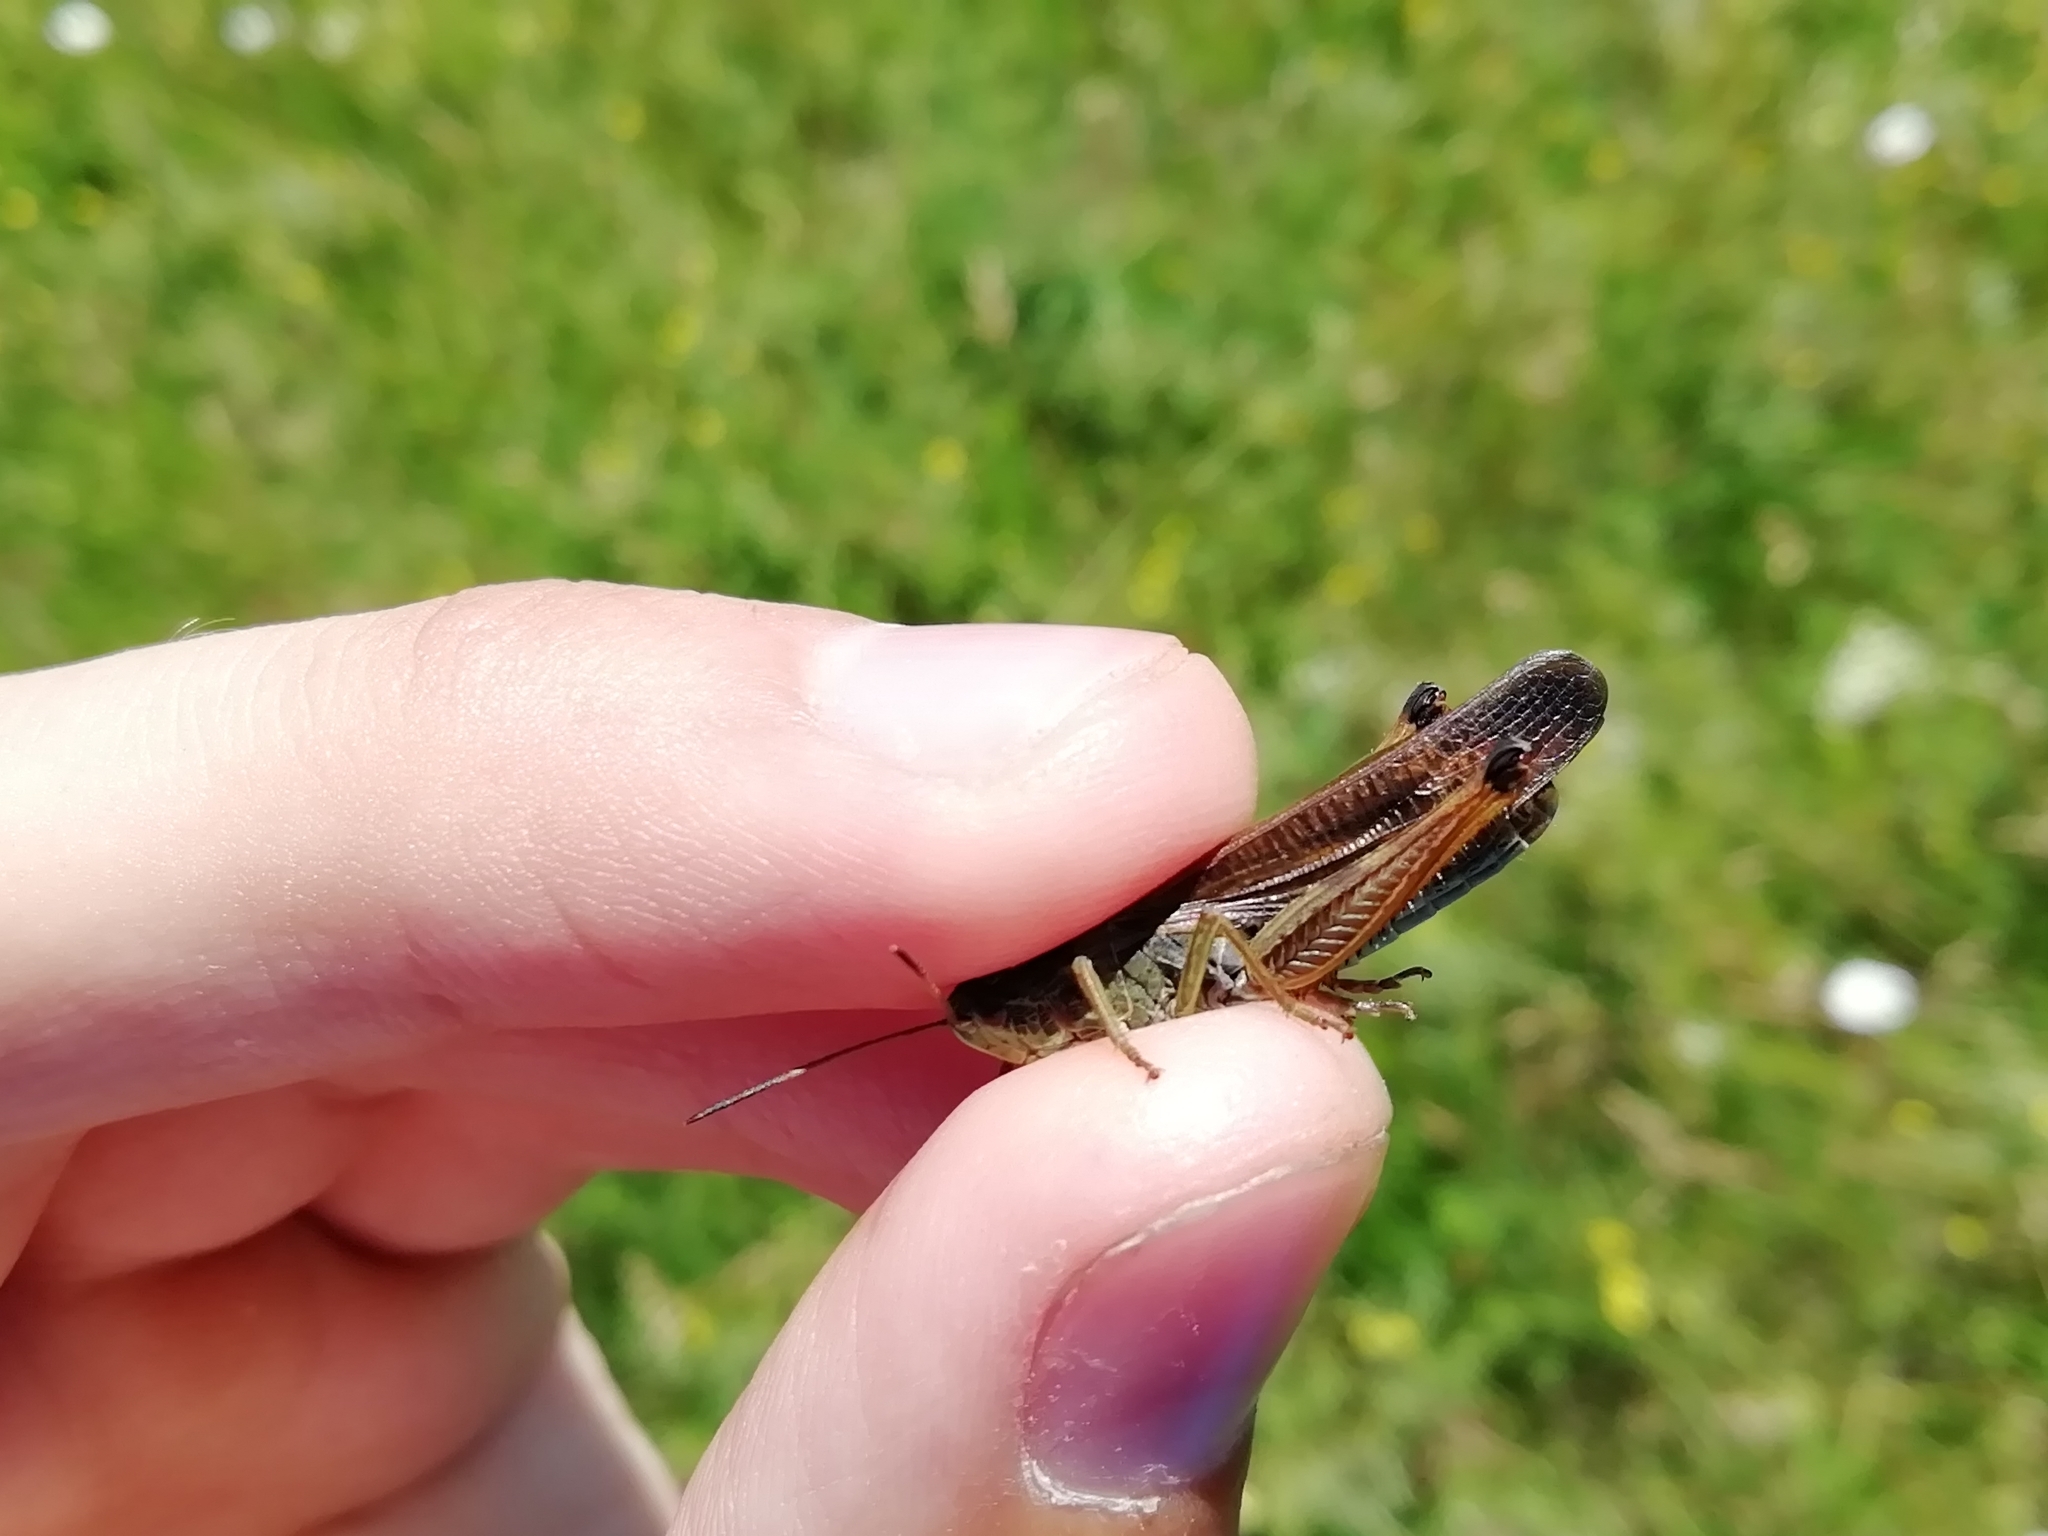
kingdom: Animalia
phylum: Arthropoda
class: Insecta
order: Orthoptera
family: Acrididae
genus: Stauroderus
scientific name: Stauroderus scalaris
